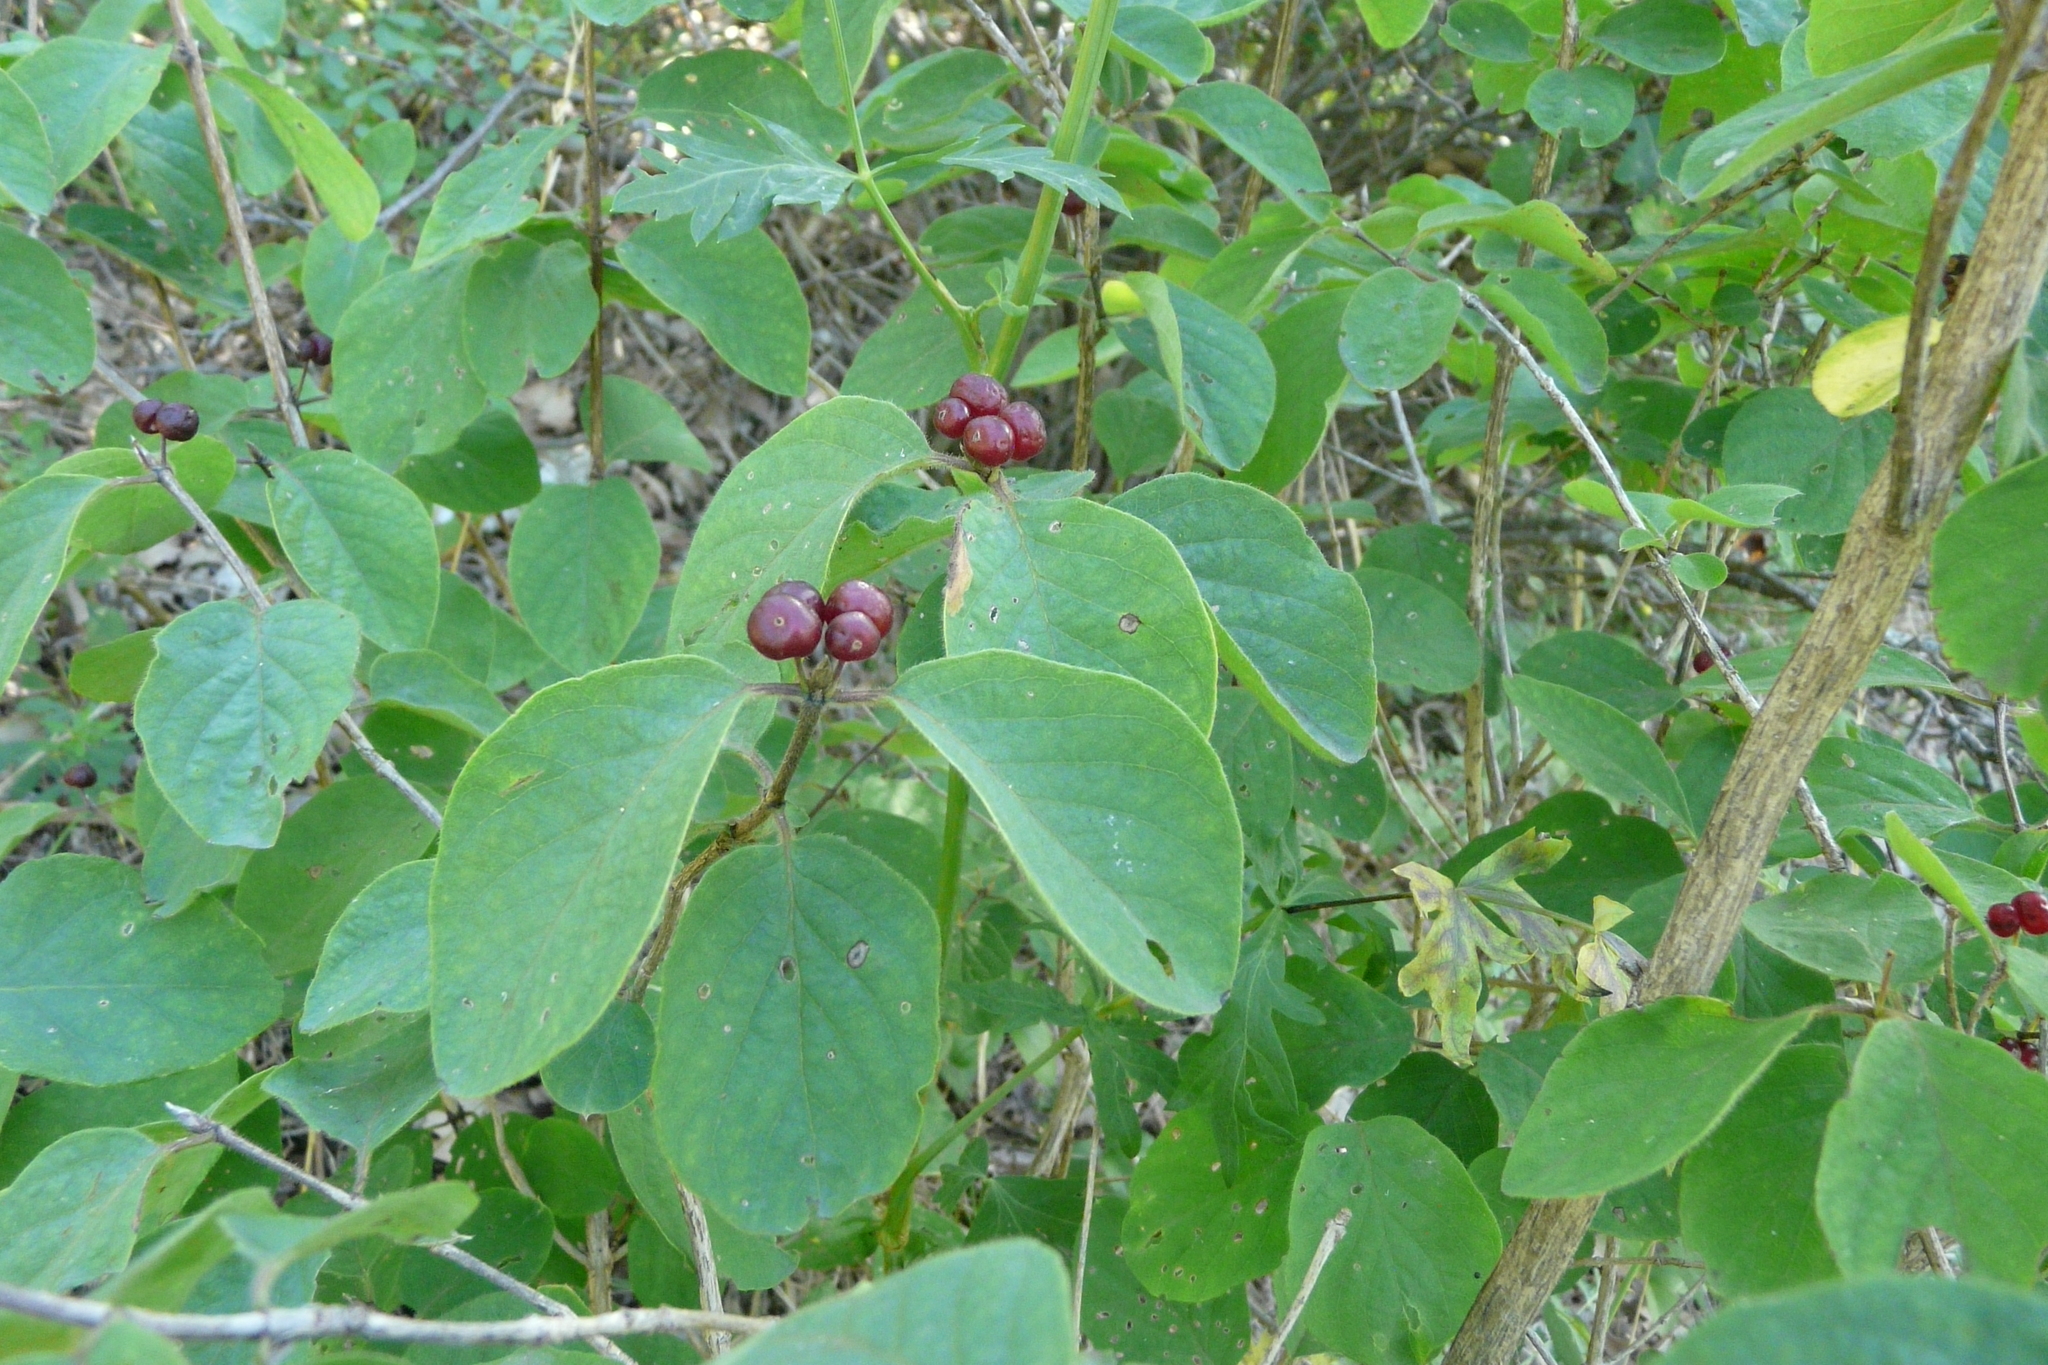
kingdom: Plantae
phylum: Tracheophyta
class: Magnoliopsida
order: Dipsacales
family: Caprifoliaceae
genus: Lonicera
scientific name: Lonicera xylosteum
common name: Fly honeysuckle
